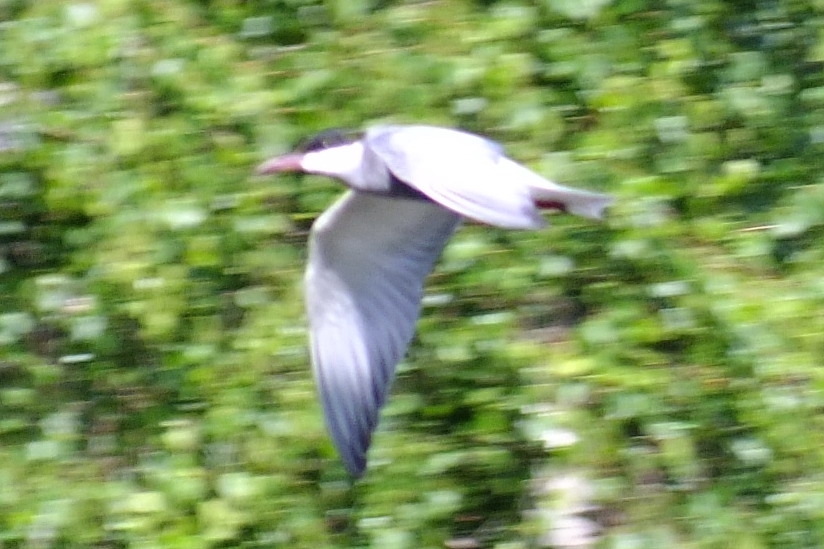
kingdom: Animalia
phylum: Chordata
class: Aves
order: Charadriiformes
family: Laridae
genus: Chlidonias
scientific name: Chlidonias hybrida
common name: Whiskered tern
